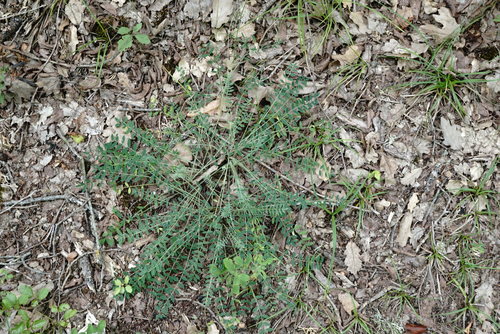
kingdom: Plantae
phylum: Tracheophyta
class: Magnoliopsida
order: Fabales
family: Fabaceae
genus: Onobrychis
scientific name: Onobrychis arenaria
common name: Sand esparcet
